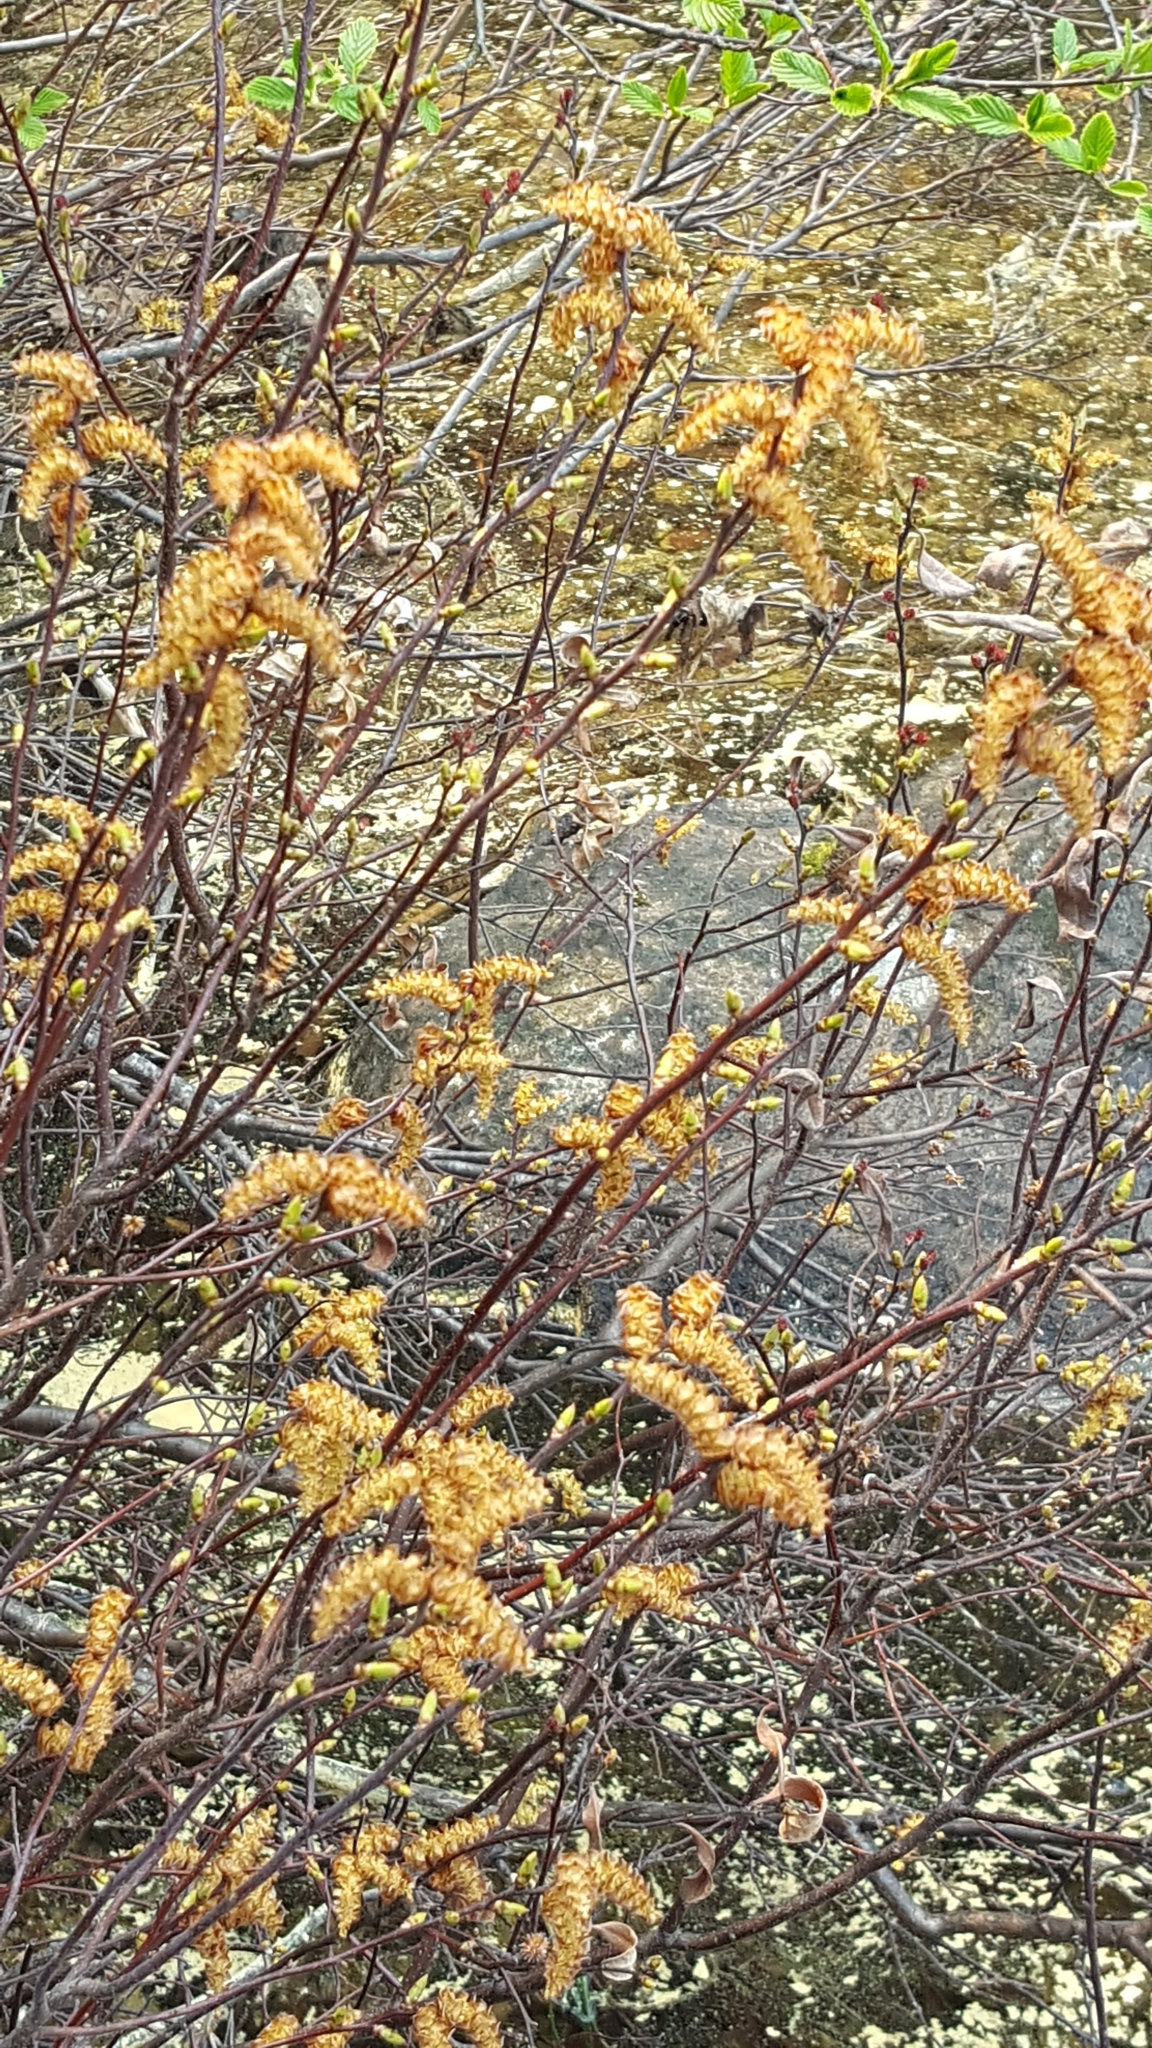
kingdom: Plantae
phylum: Tracheophyta
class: Magnoliopsida
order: Fagales
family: Myricaceae
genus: Myrica
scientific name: Myrica gale
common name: Sweet gale
